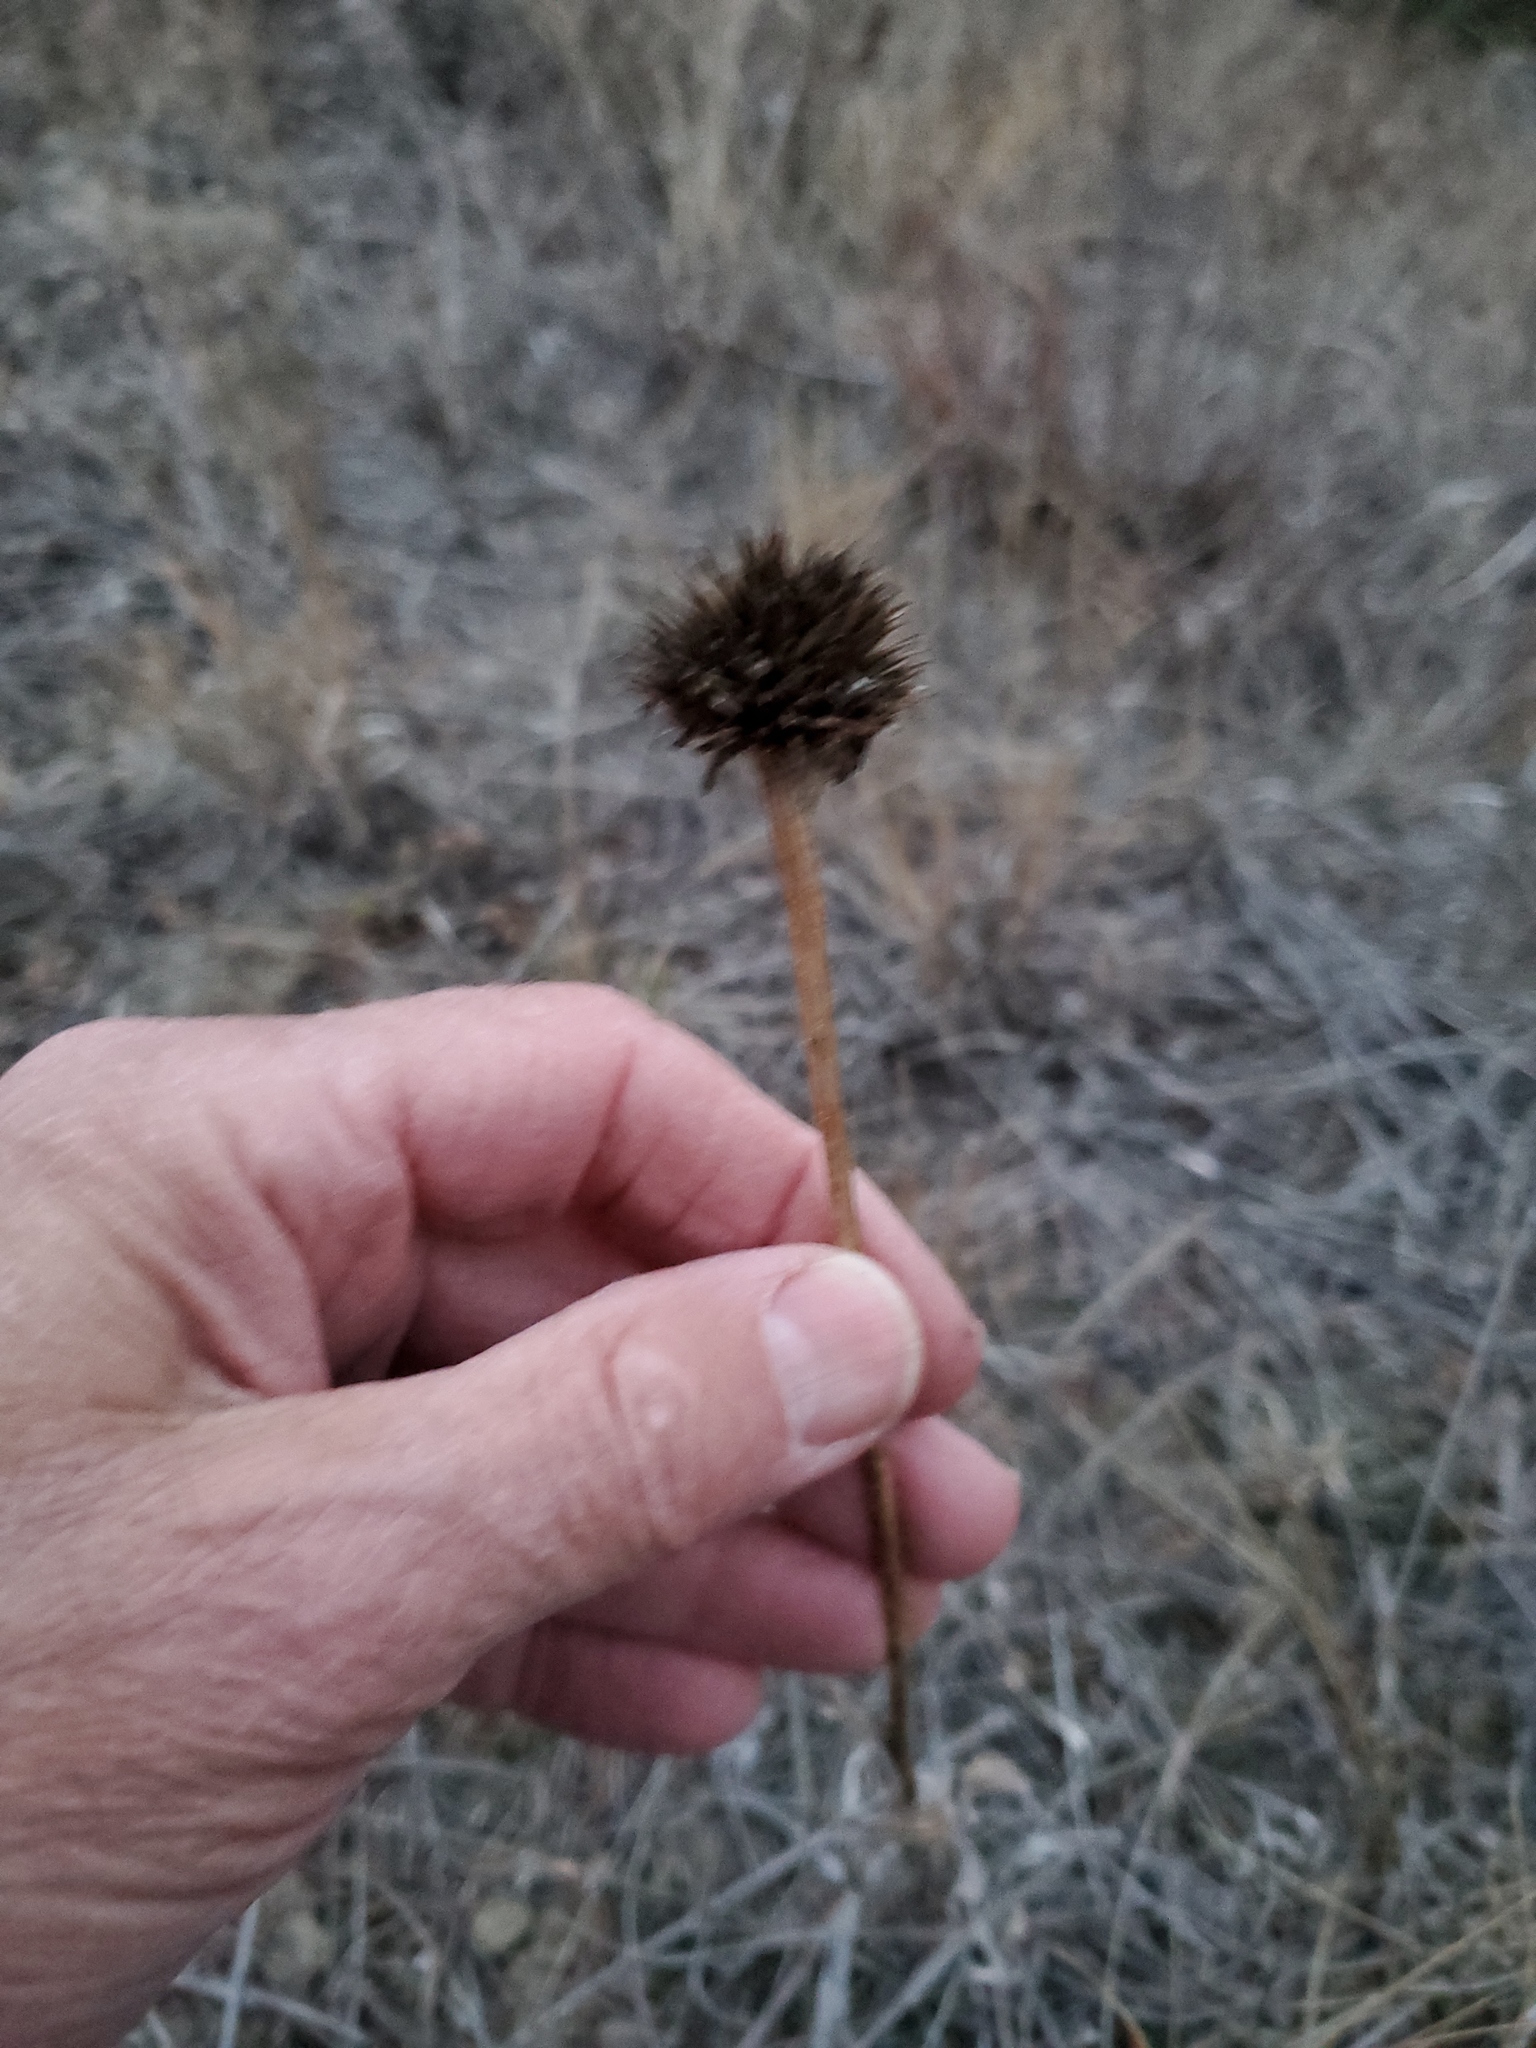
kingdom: Plantae
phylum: Tracheophyta
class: Magnoliopsida
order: Asterales
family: Asteraceae
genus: Echinacea
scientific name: Echinacea angustifolia
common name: Black-sampson echinacea
